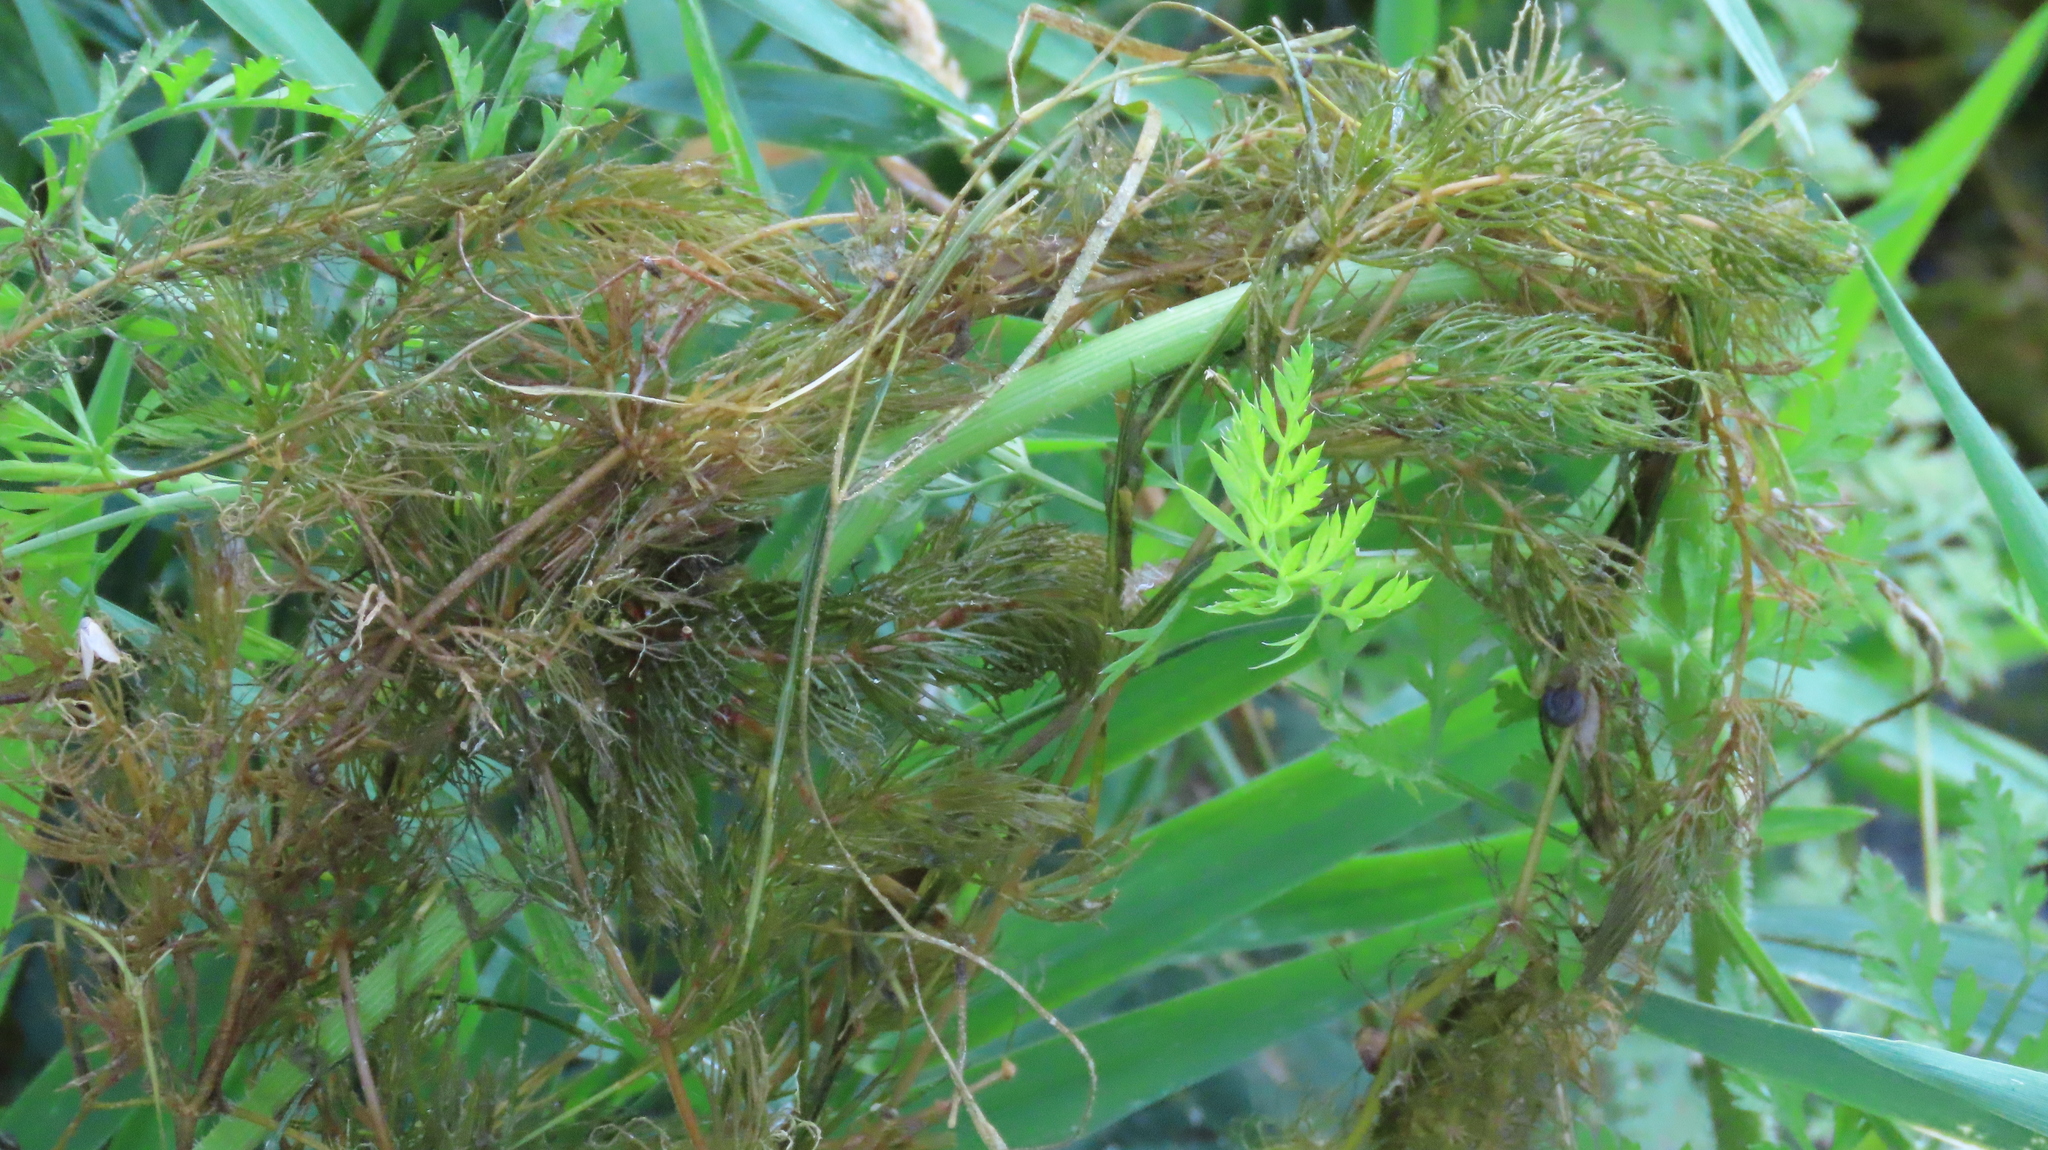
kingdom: Plantae
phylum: Tracheophyta
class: Magnoliopsida
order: Ceratophyllales
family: Ceratophyllaceae
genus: Ceratophyllum
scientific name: Ceratophyllum demersum
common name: Rigid hornwort
